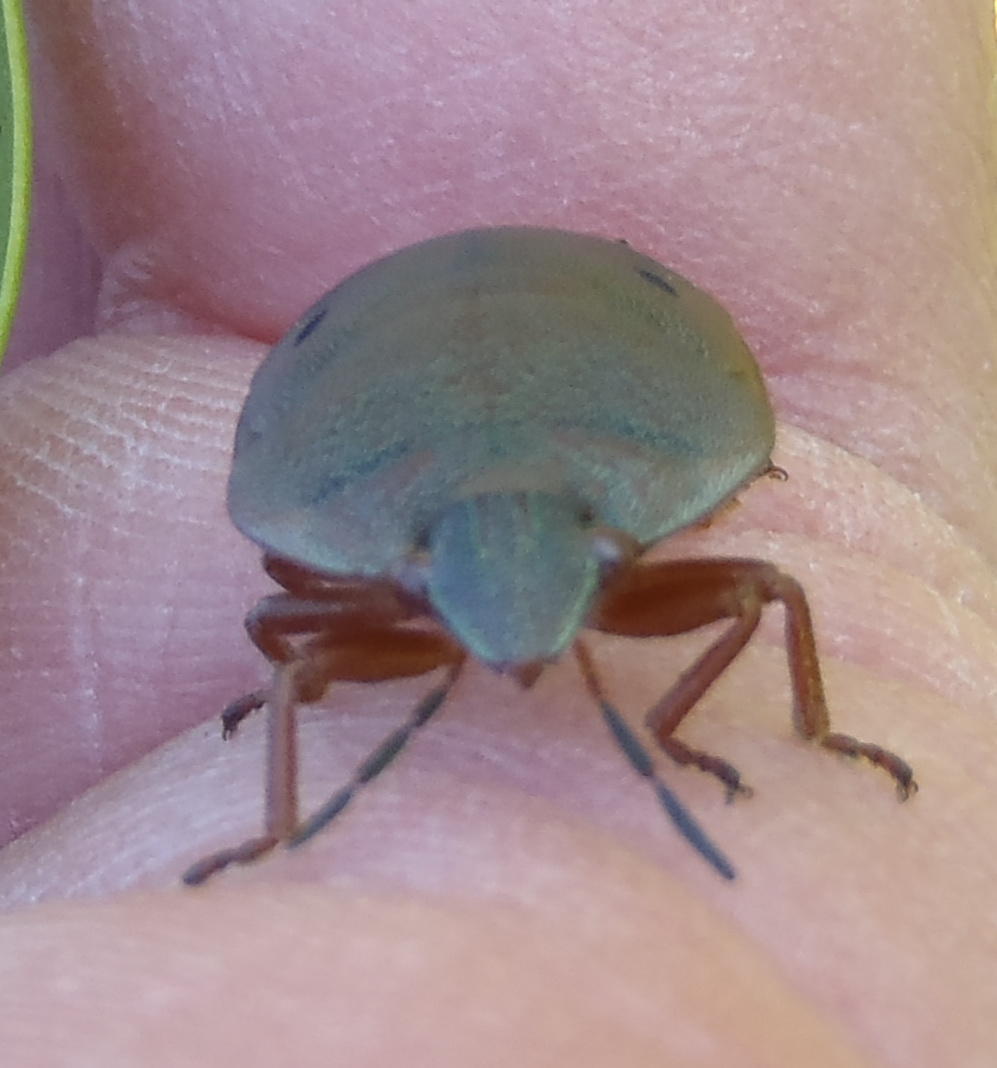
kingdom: Animalia
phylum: Arthropoda
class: Insecta
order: Hemiptera
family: Scutelleridae
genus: Solenosthedium
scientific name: Solenosthedium
